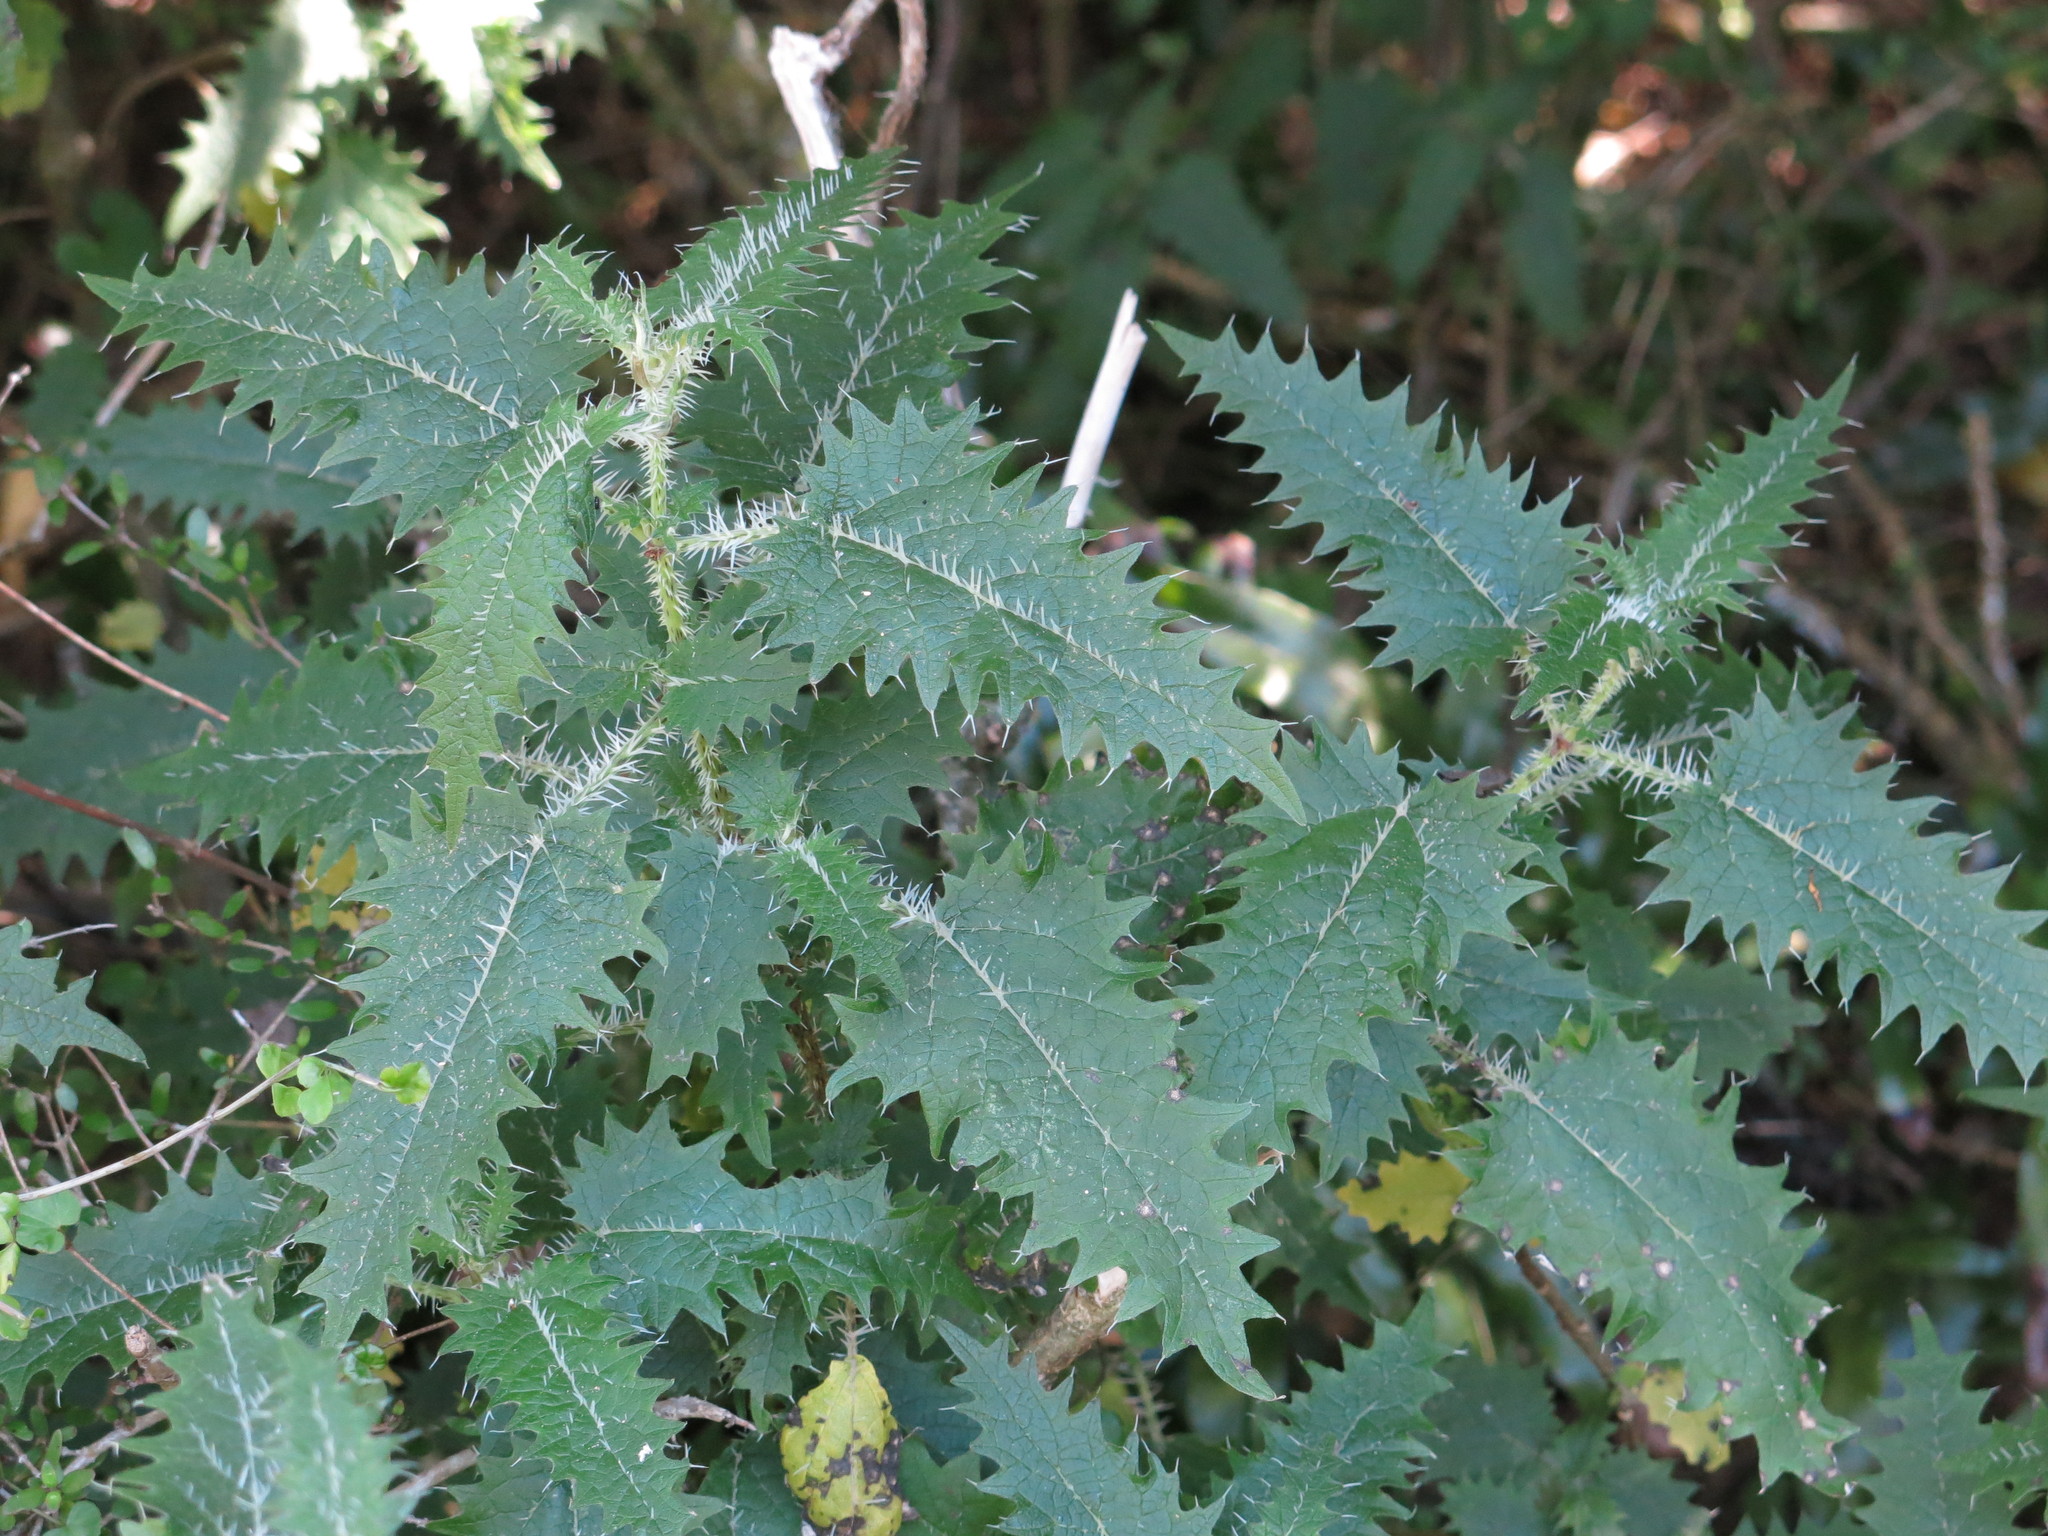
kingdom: Plantae
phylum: Tracheophyta
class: Magnoliopsida
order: Rosales
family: Urticaceae
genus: Urtica
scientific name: Urtica ferox
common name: Tree nettle
